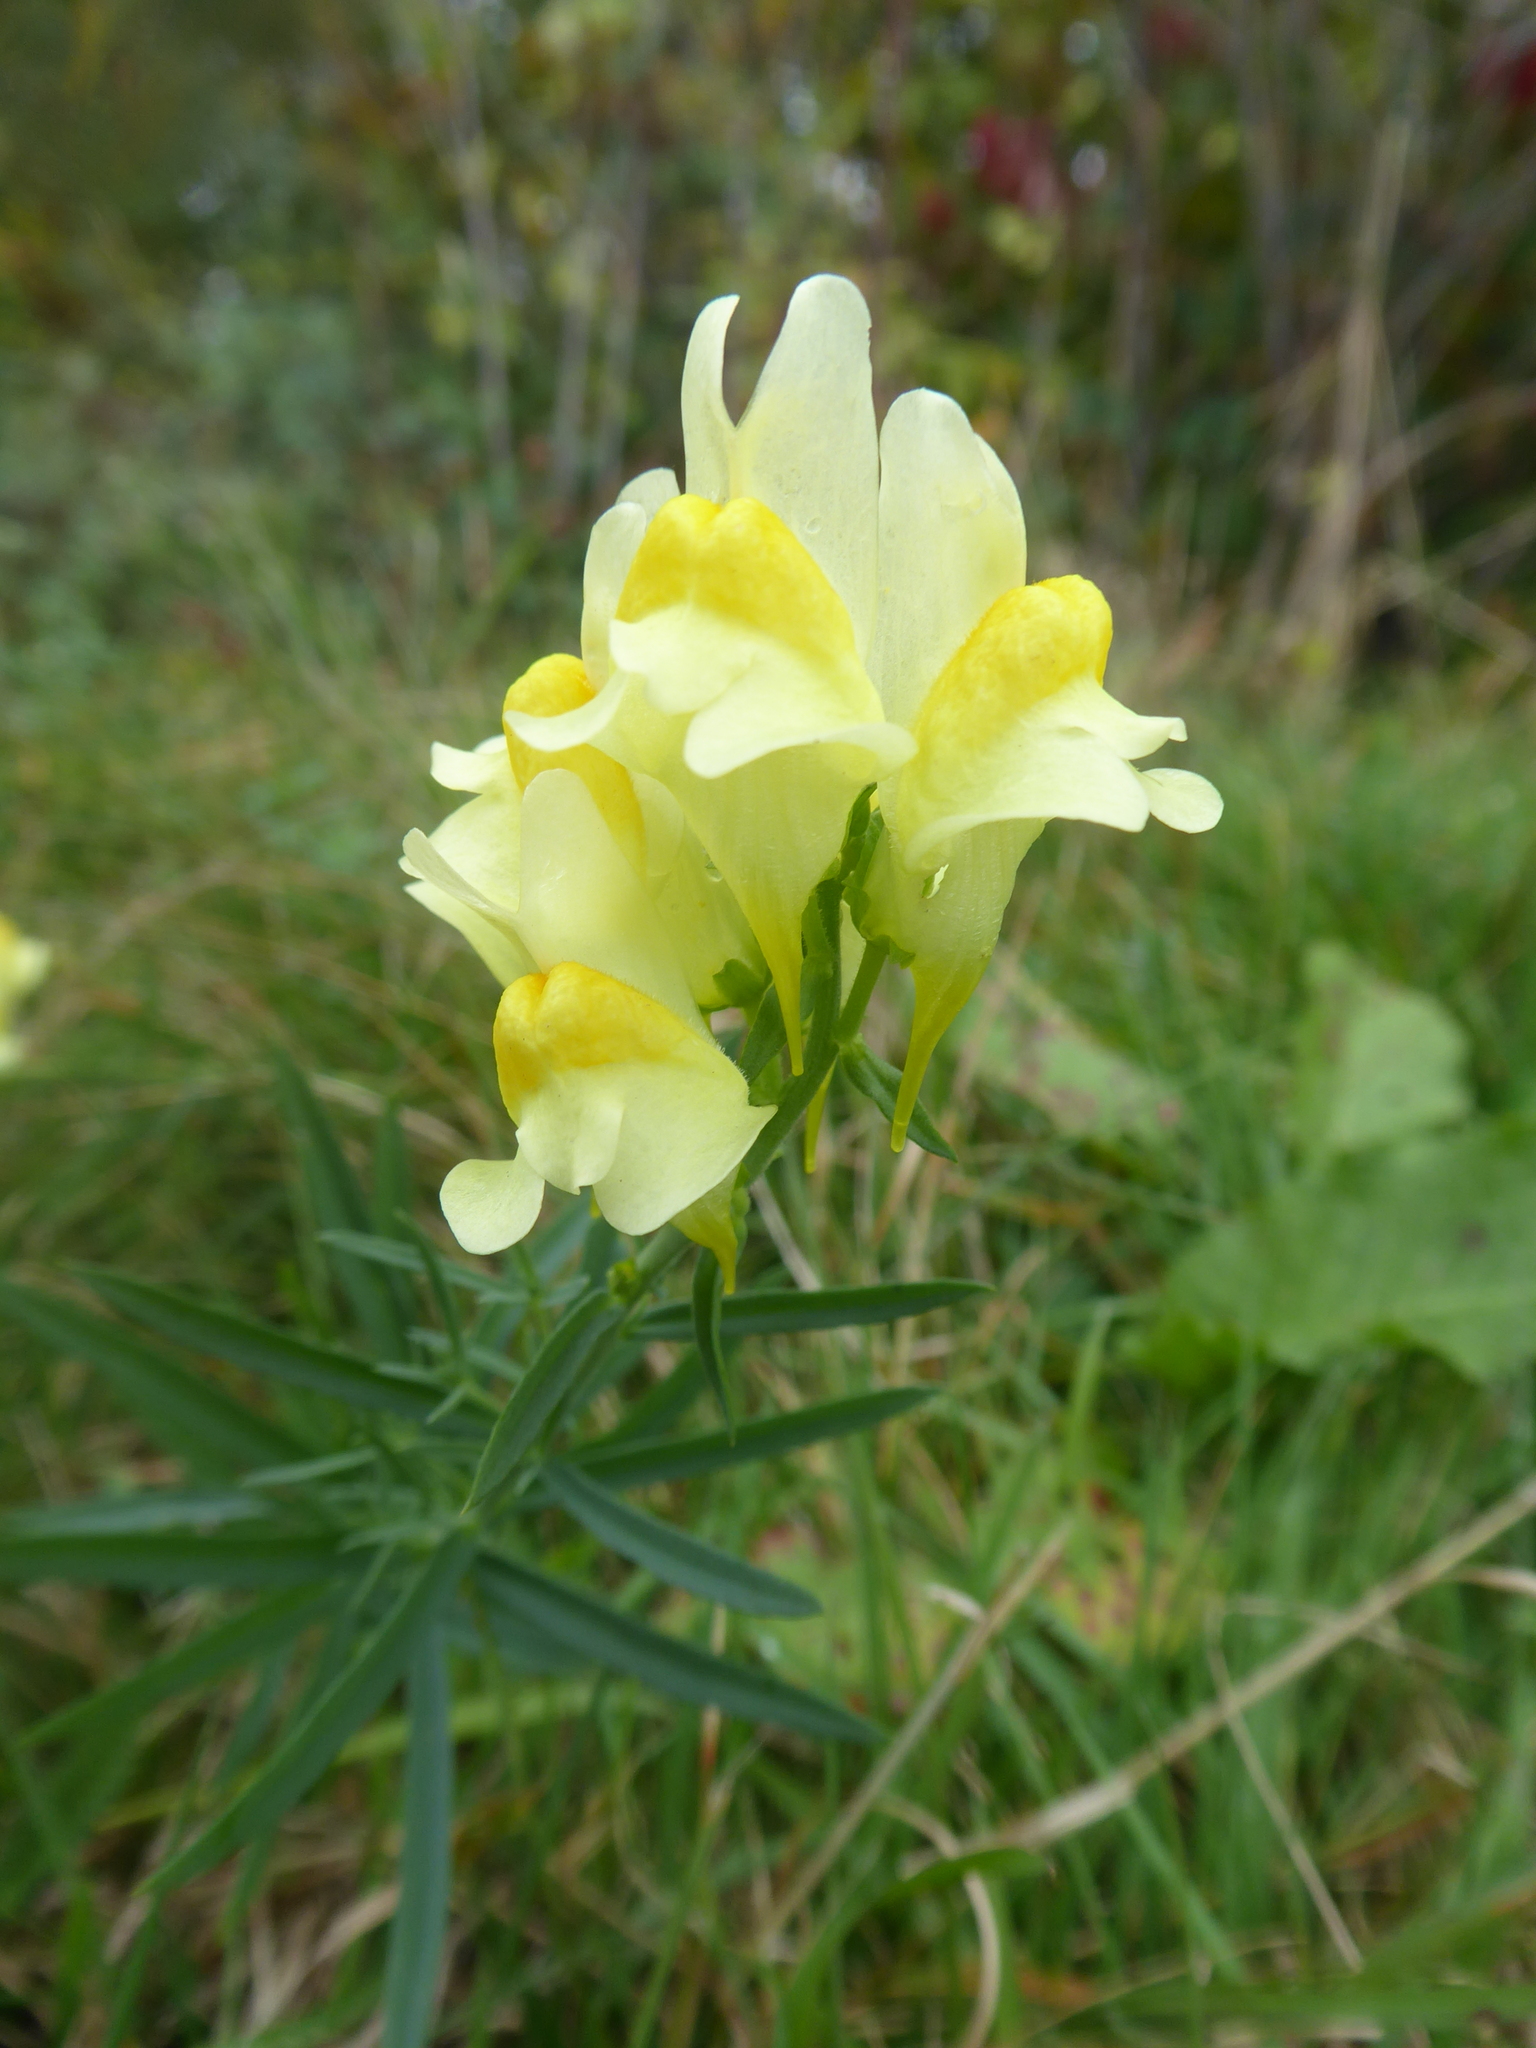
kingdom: Plantae
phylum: Tracheophyta
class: Magnoliopsida
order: Lamiales
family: Plantaginaceae
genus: Linaria
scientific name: Linaria vulgaris
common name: Butter and eggs
